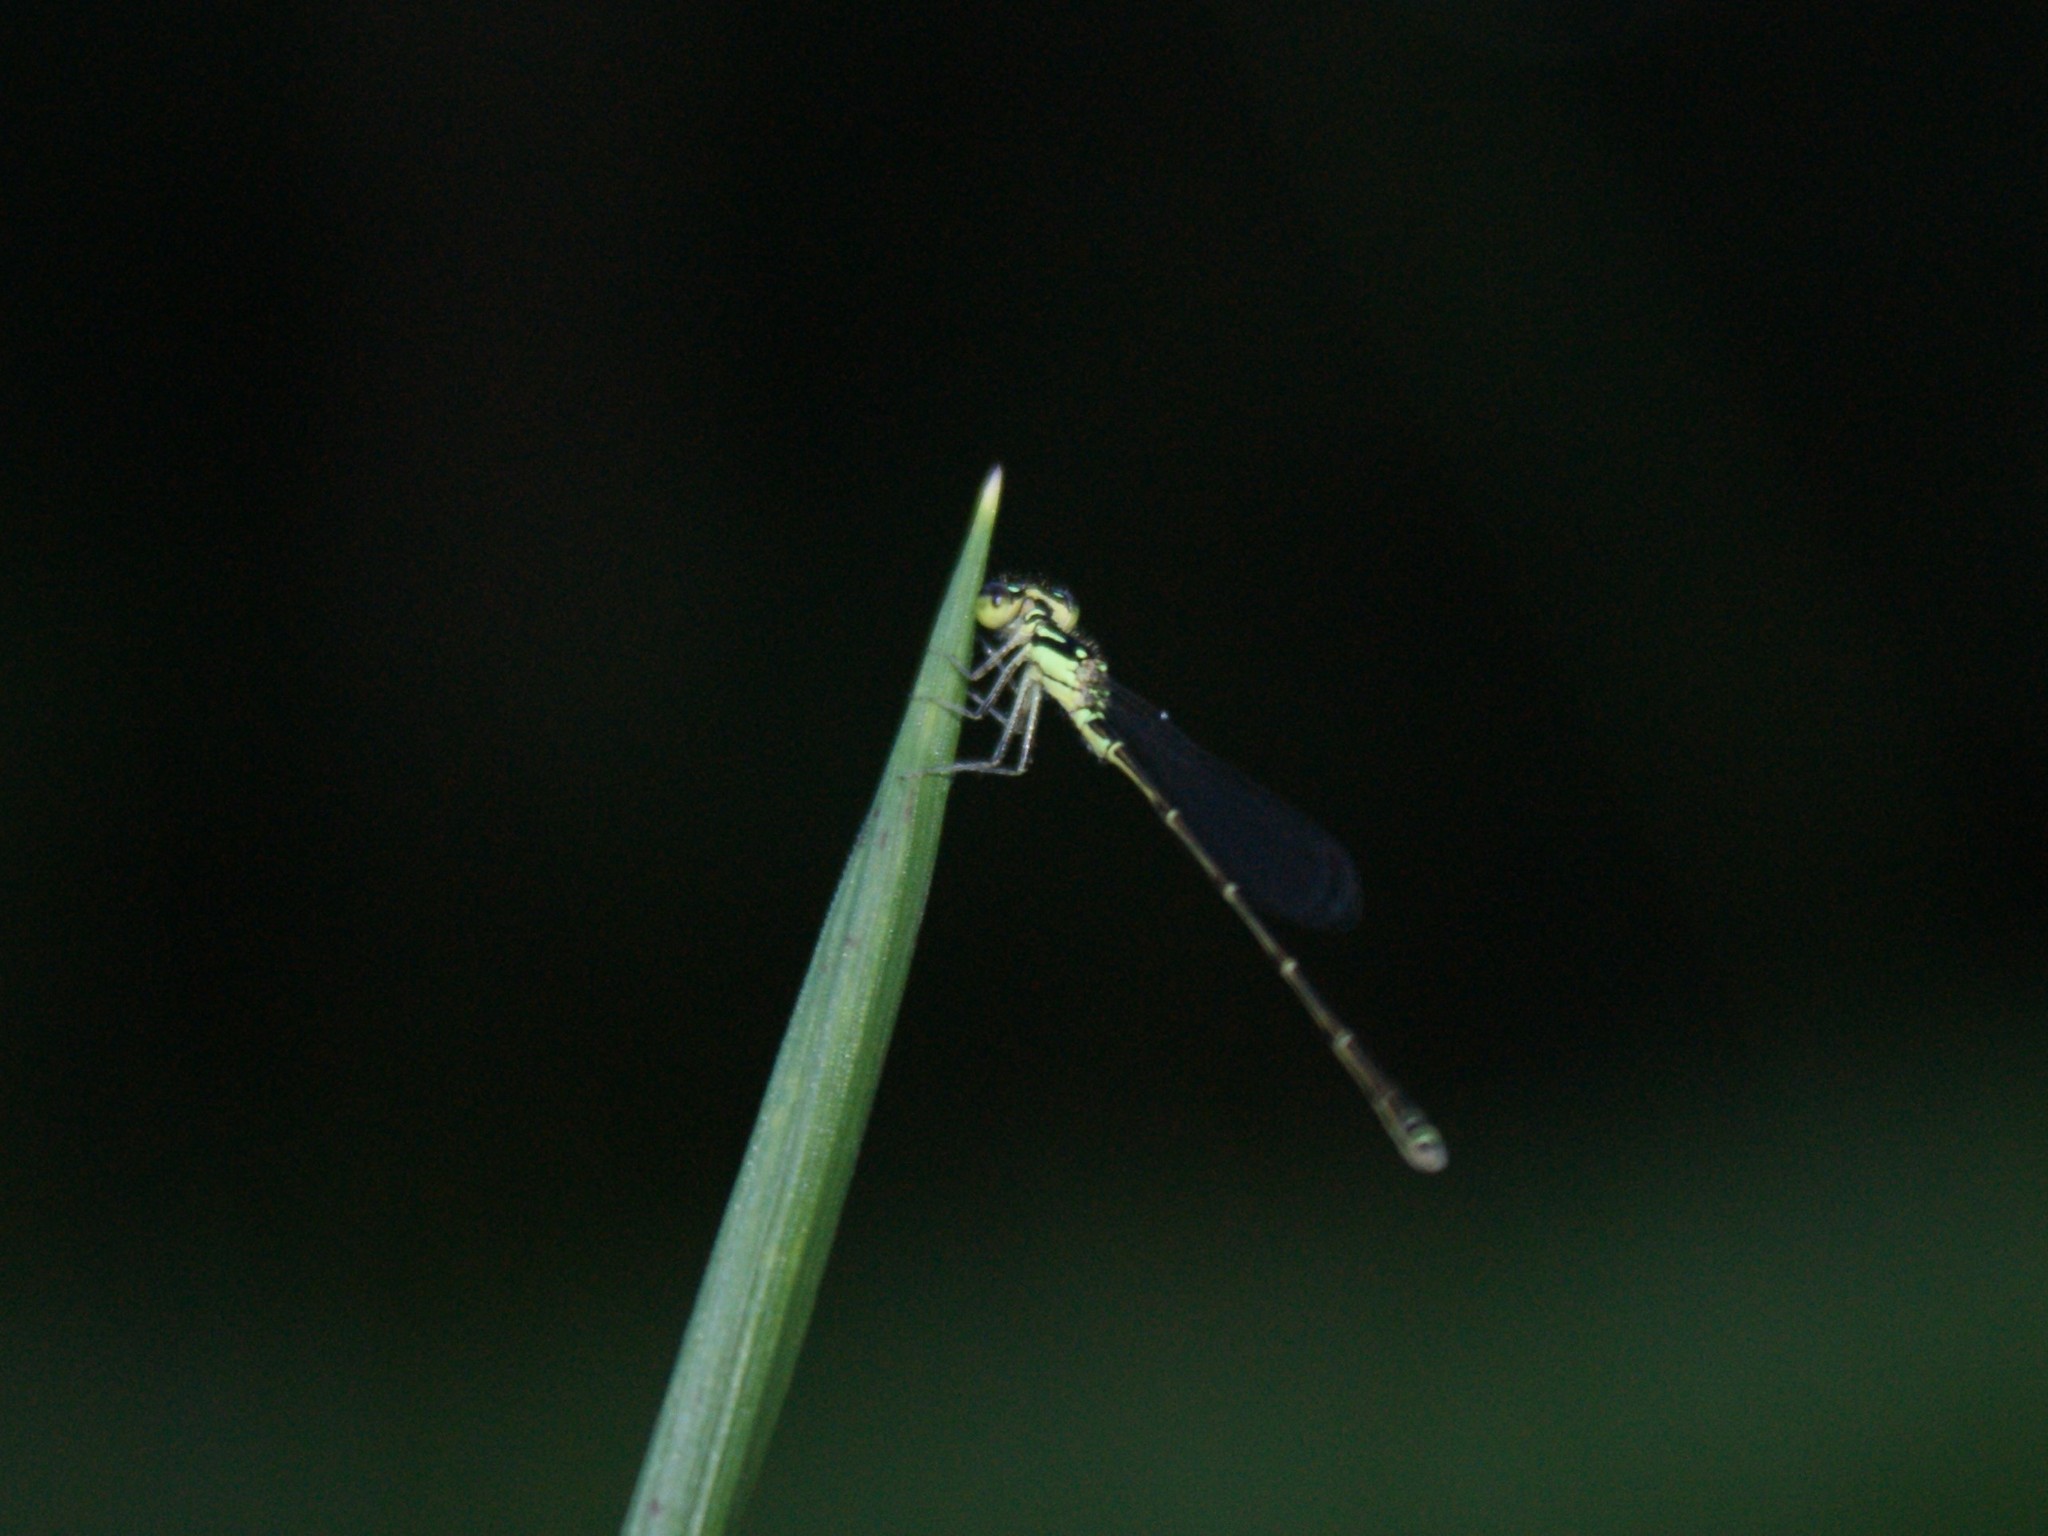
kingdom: Animalia
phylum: Arthropoda
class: Insecta
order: Odonata
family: Coenagrionidae
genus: Ischnura
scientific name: Ischnura posita
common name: Fragile forktail
